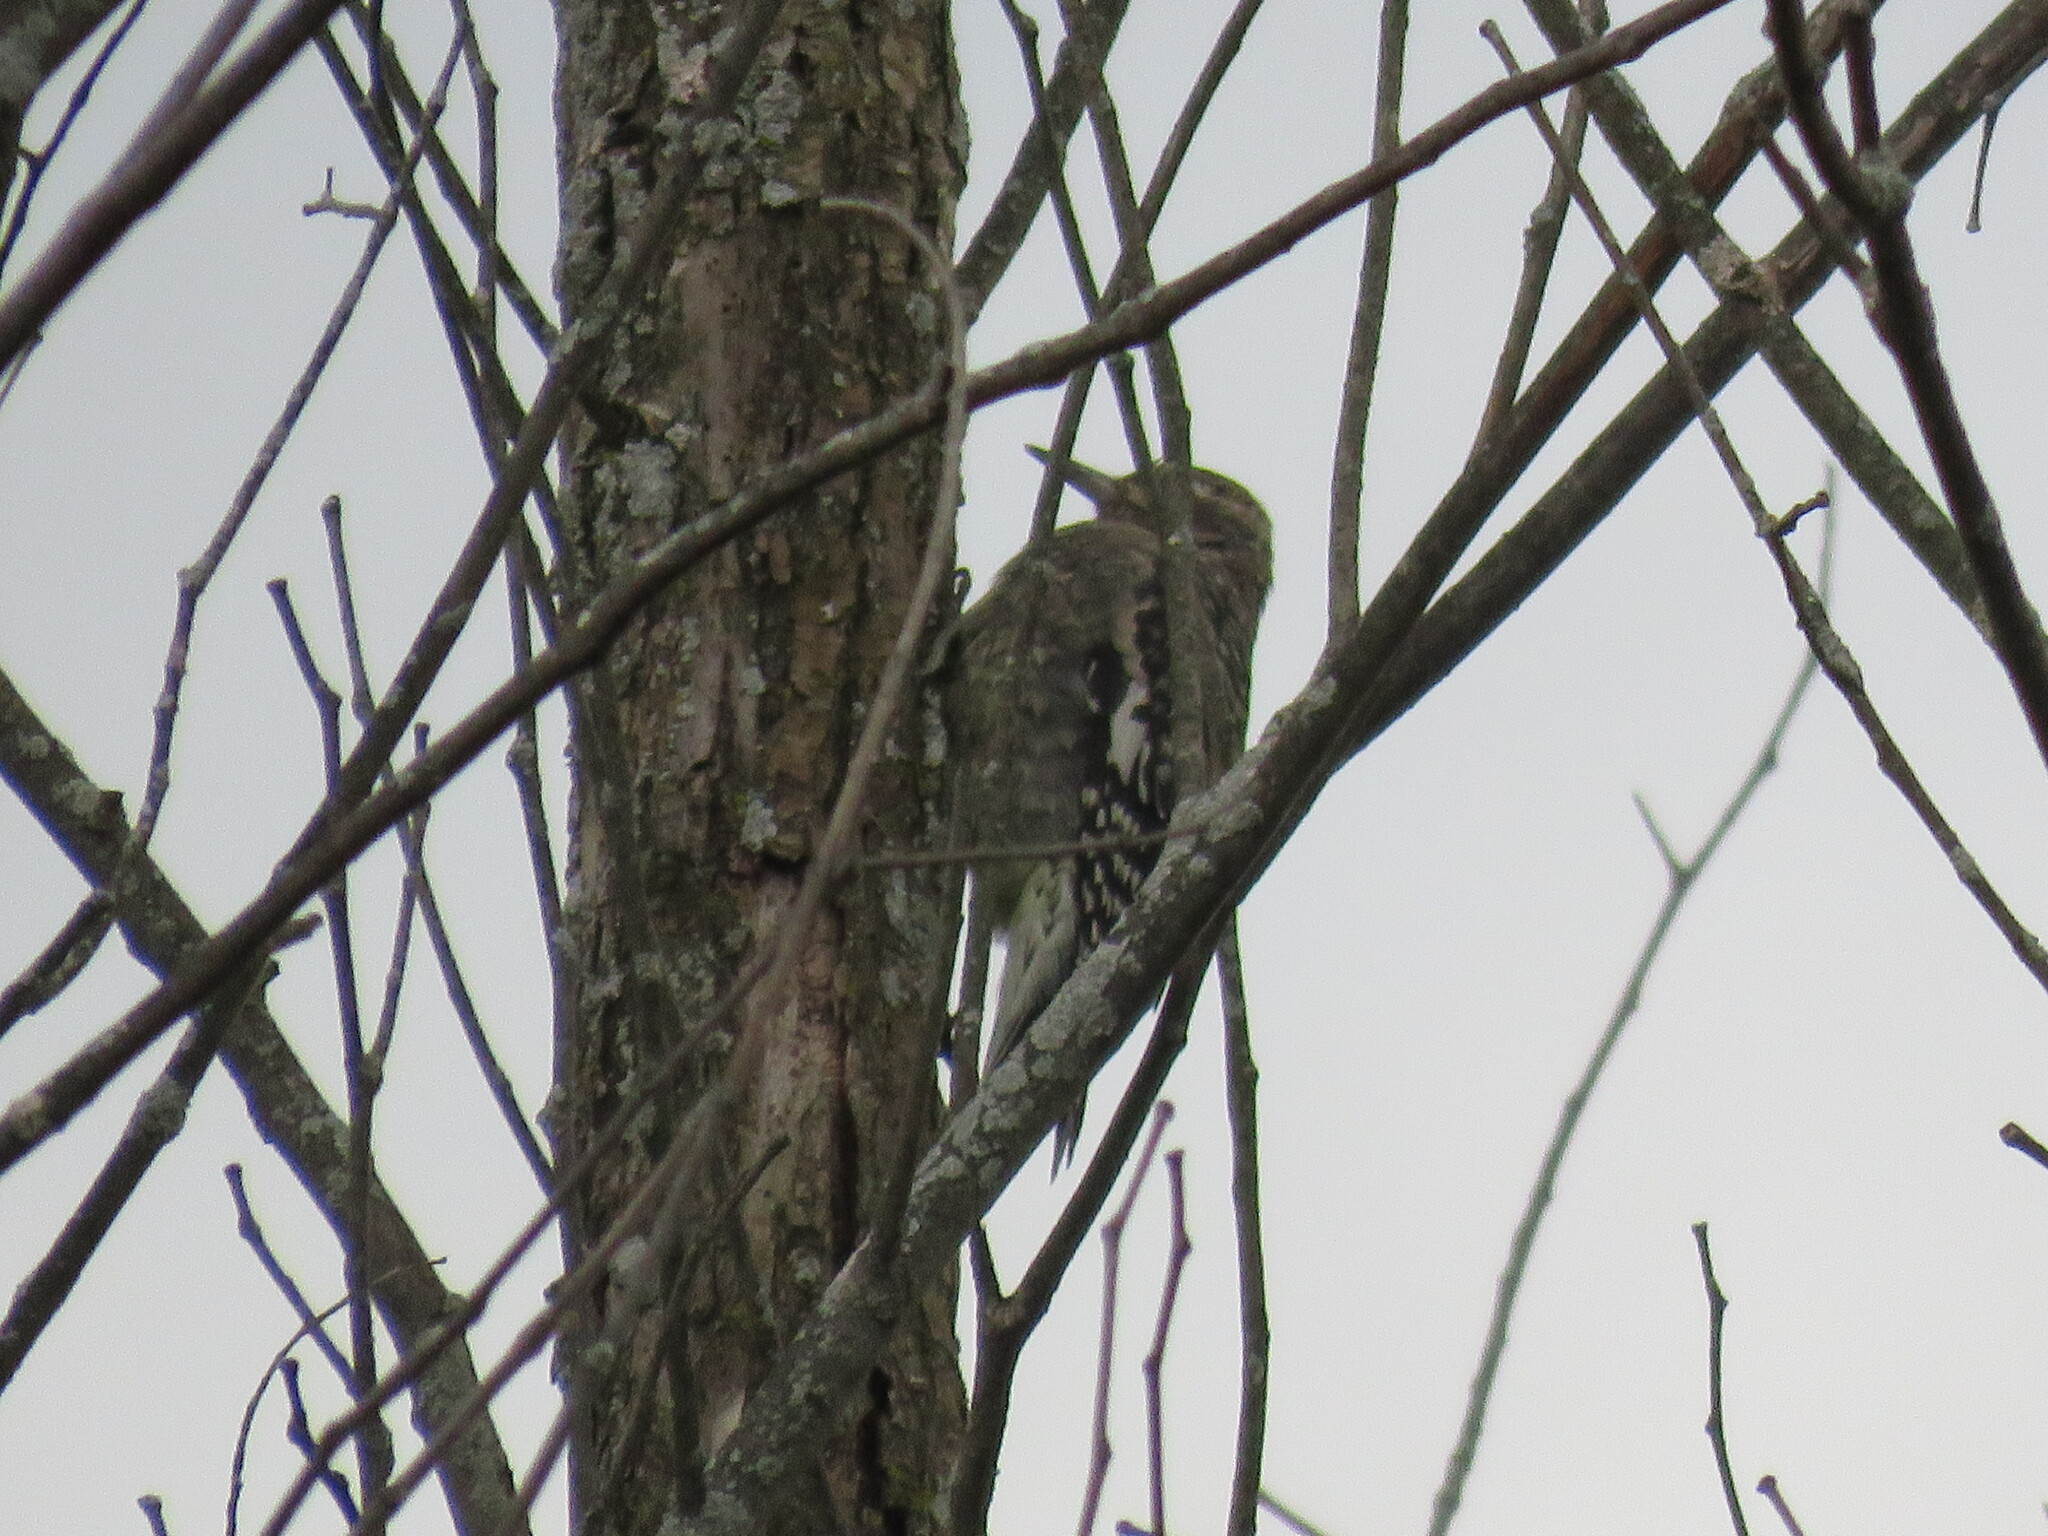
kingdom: Animalia
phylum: Chordata
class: Aves
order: Piciformes
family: Picidae
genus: Sphyrapicus
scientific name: Sphyrapicus varius
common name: Yellow-bellied sapsucker
